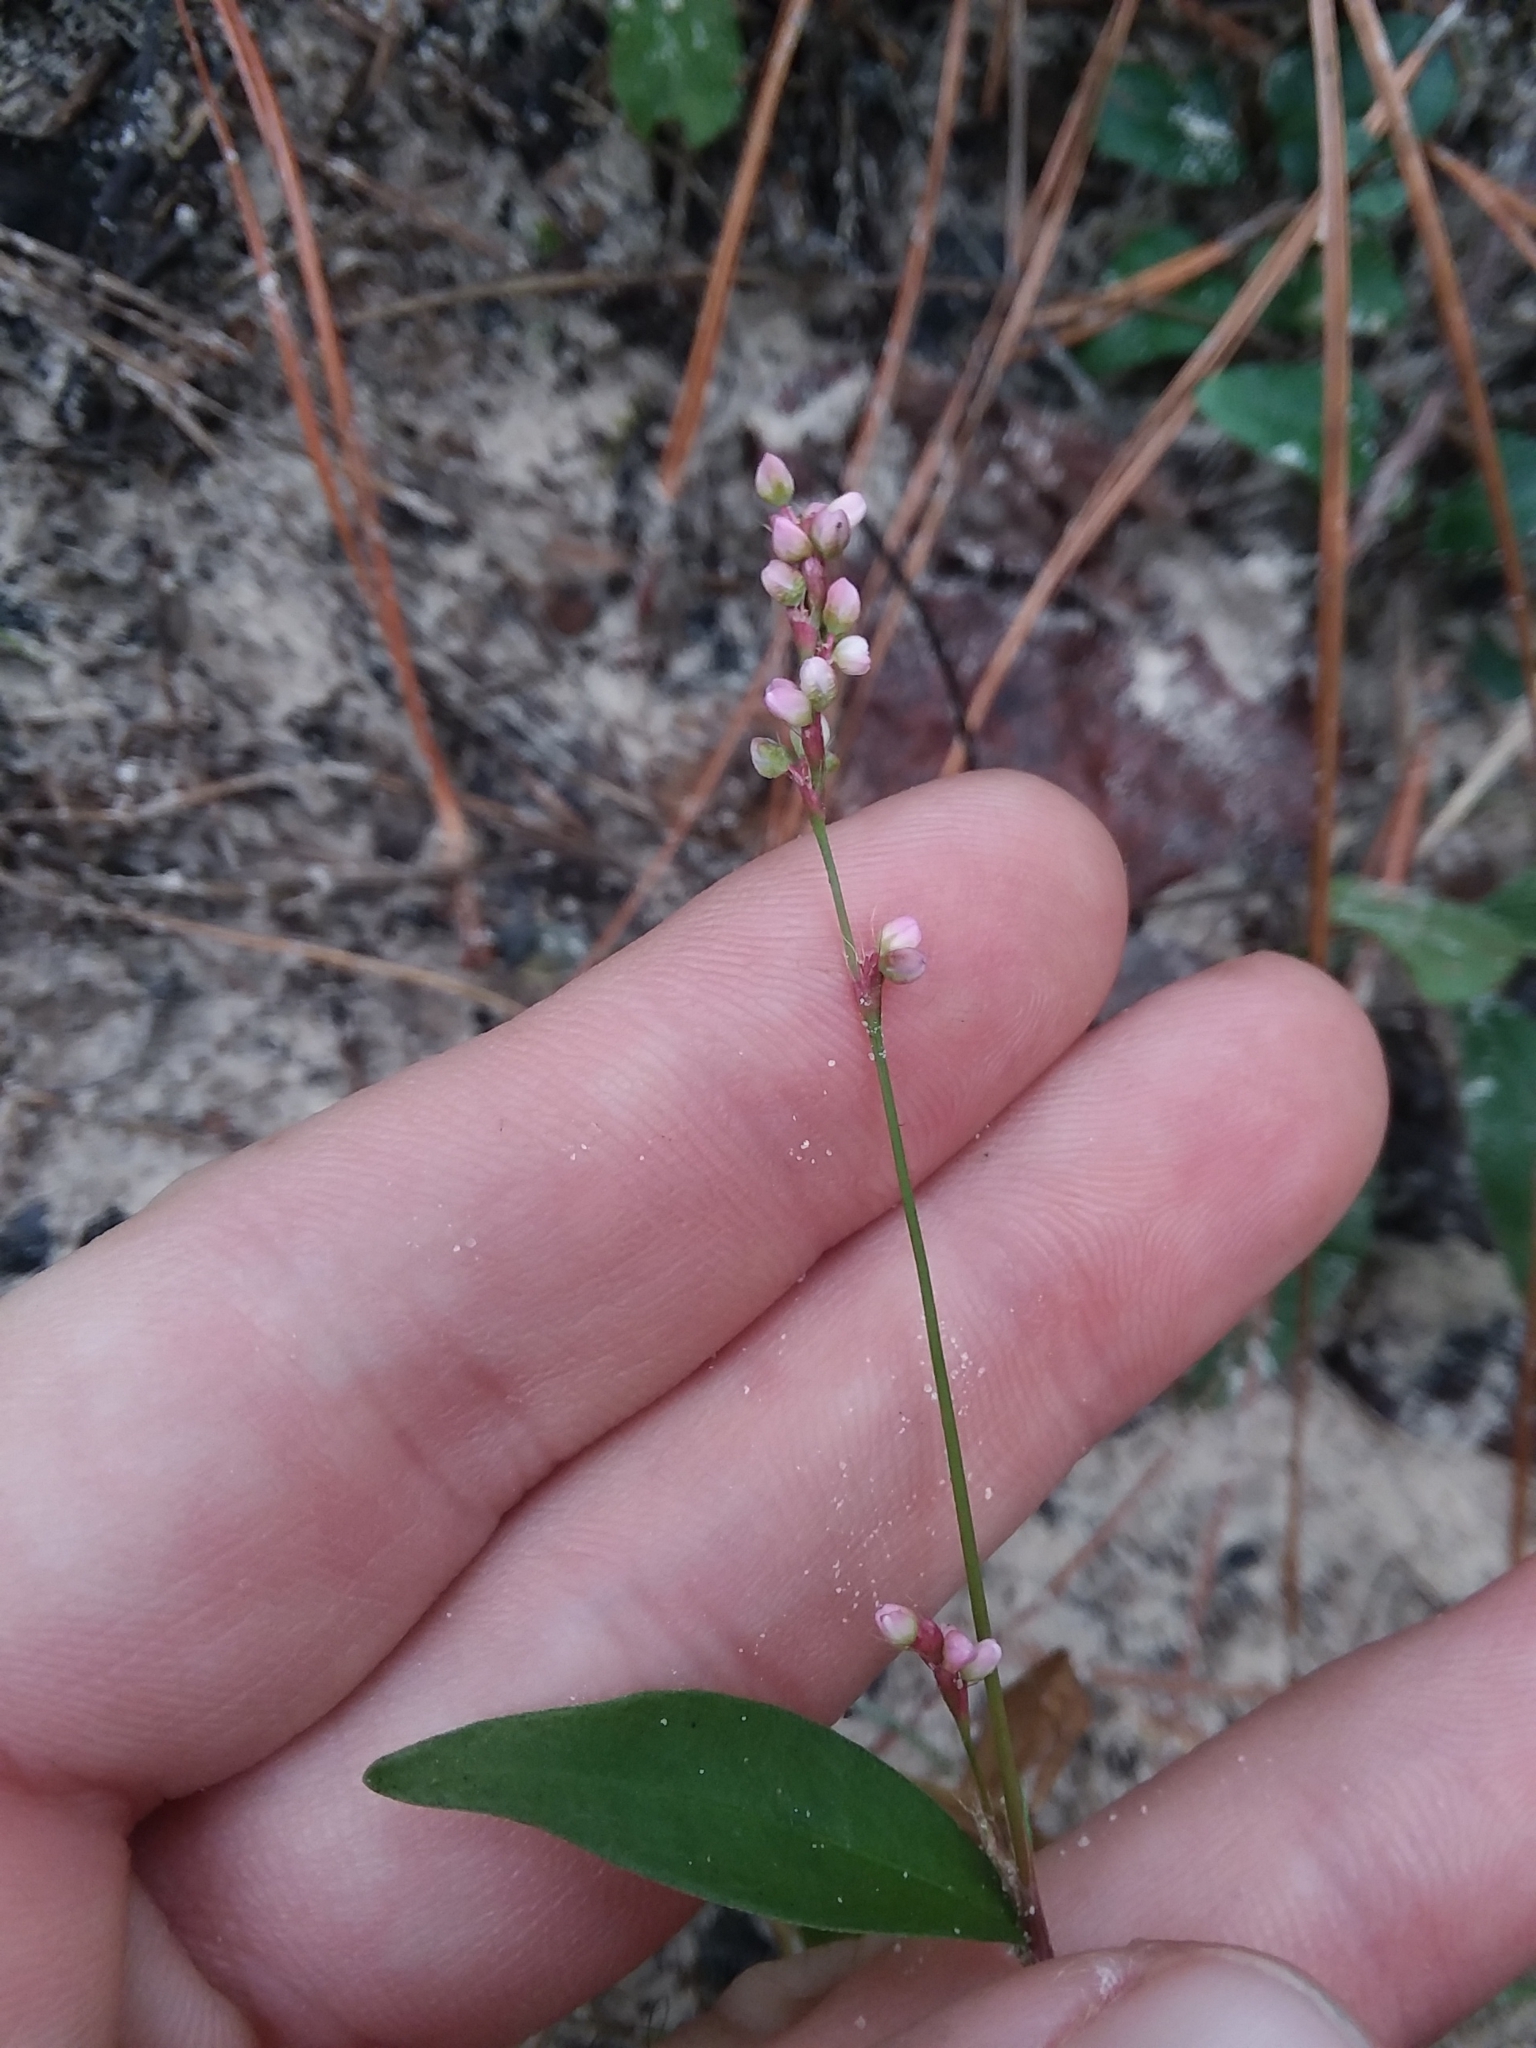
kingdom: Plantae
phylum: Tracheophyta
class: Magnoliopsida
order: Caryophyllales
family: Polygonaceae
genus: Persicaria
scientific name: Persicaria longiseta
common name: Bristly lady's-thumb
